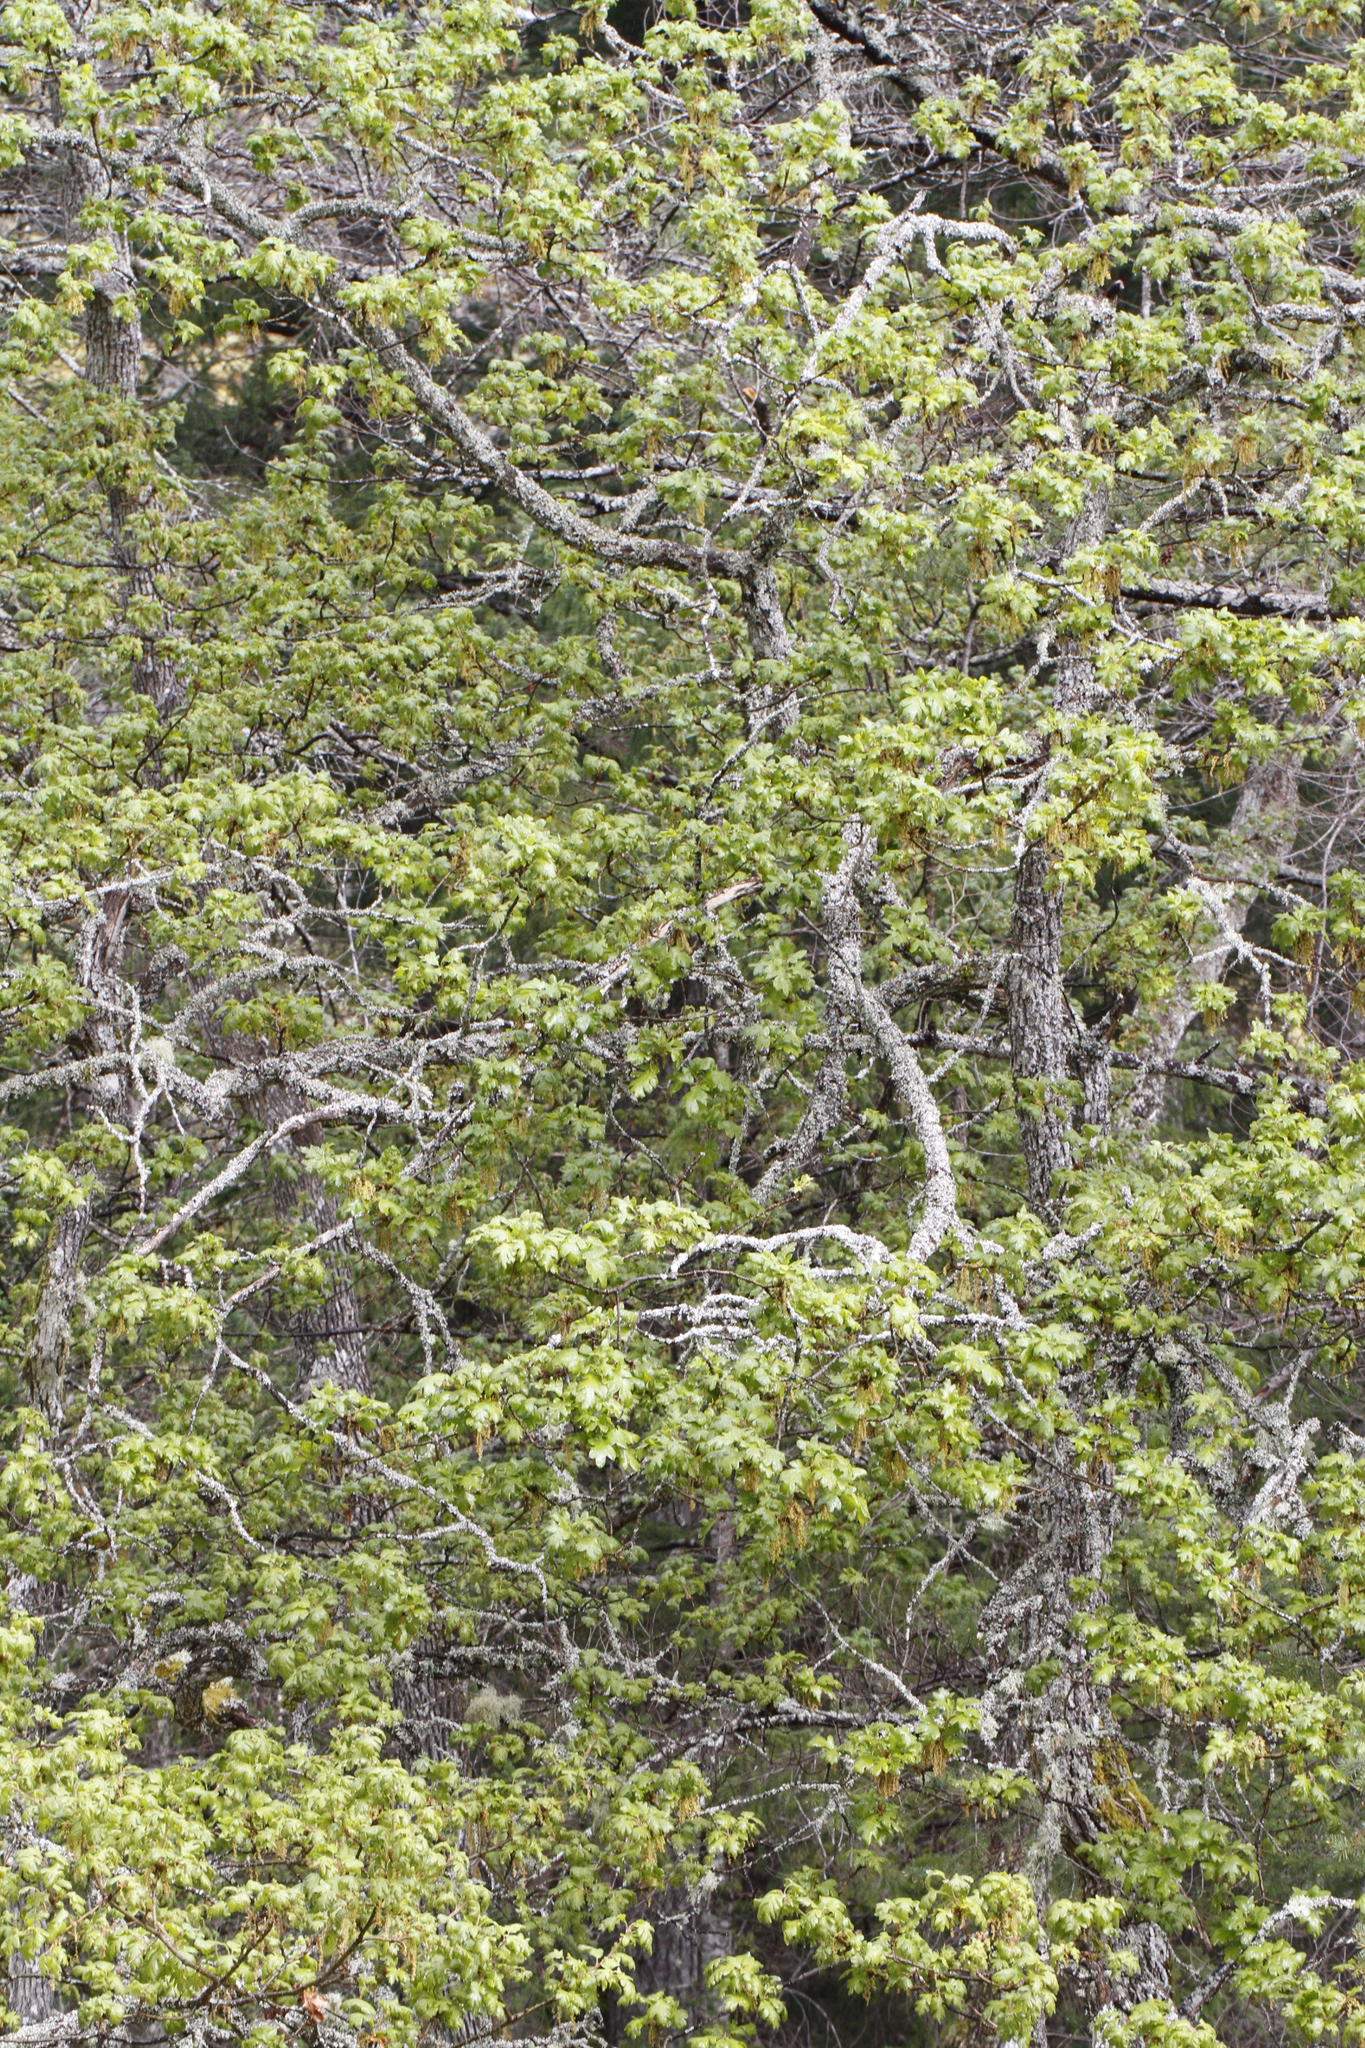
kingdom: Plantae
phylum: Tracheophyta
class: Magnoliopsida
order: Fagales
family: Fagaceae
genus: Quercus
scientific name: Quercus garryana
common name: Garry oak
